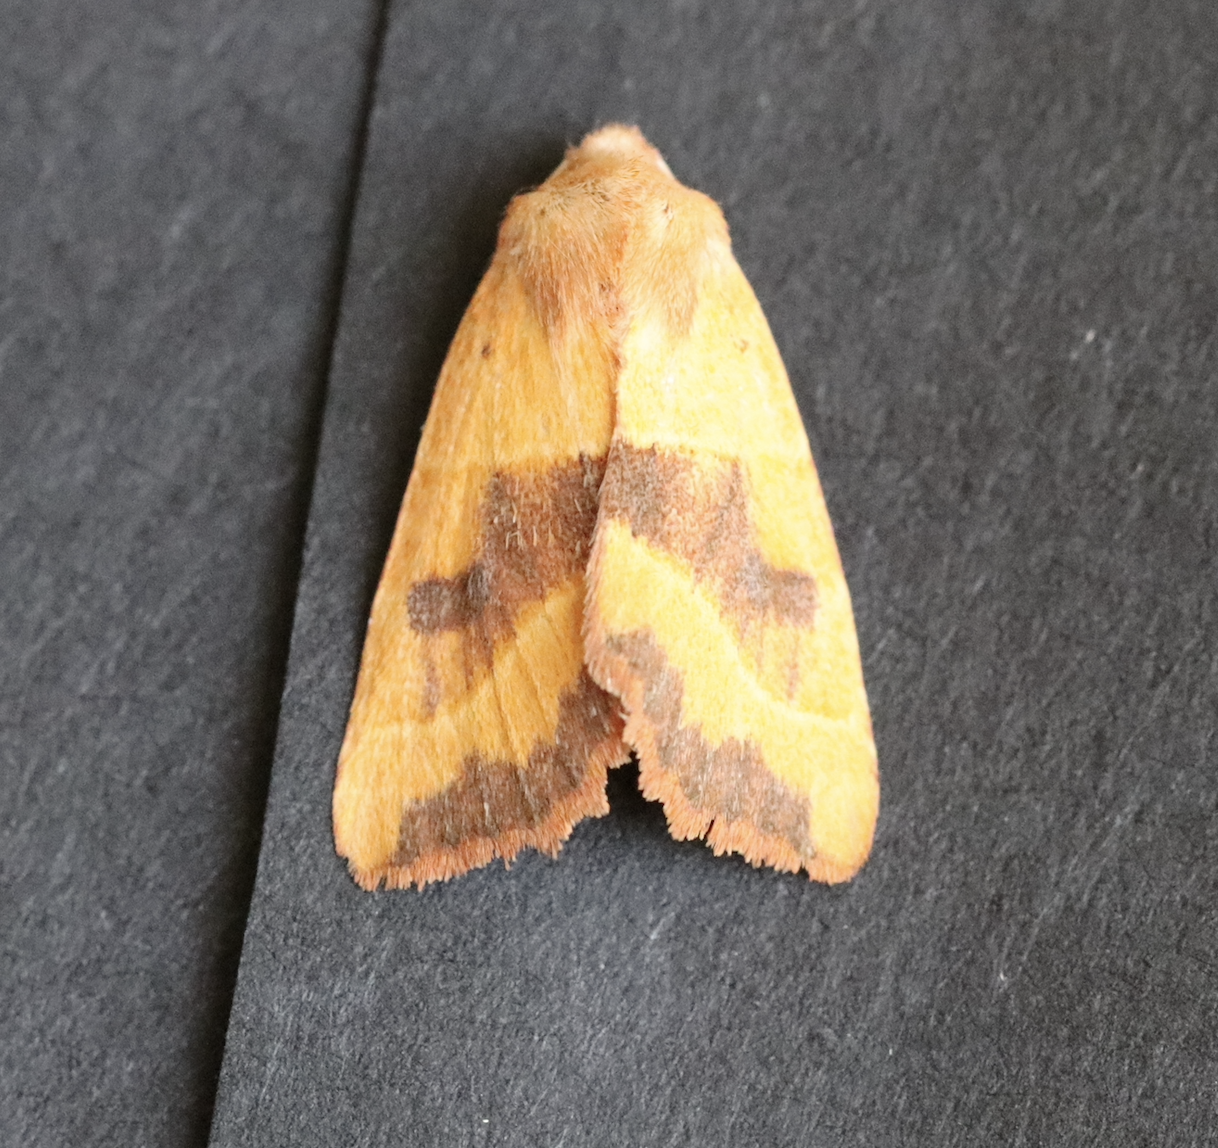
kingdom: Animalia
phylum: Arthropoda
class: Insecta
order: Lepidoptera
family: Noctuidae
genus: Atethmia
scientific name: Atethmia centrago
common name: Centre-barred sallow
